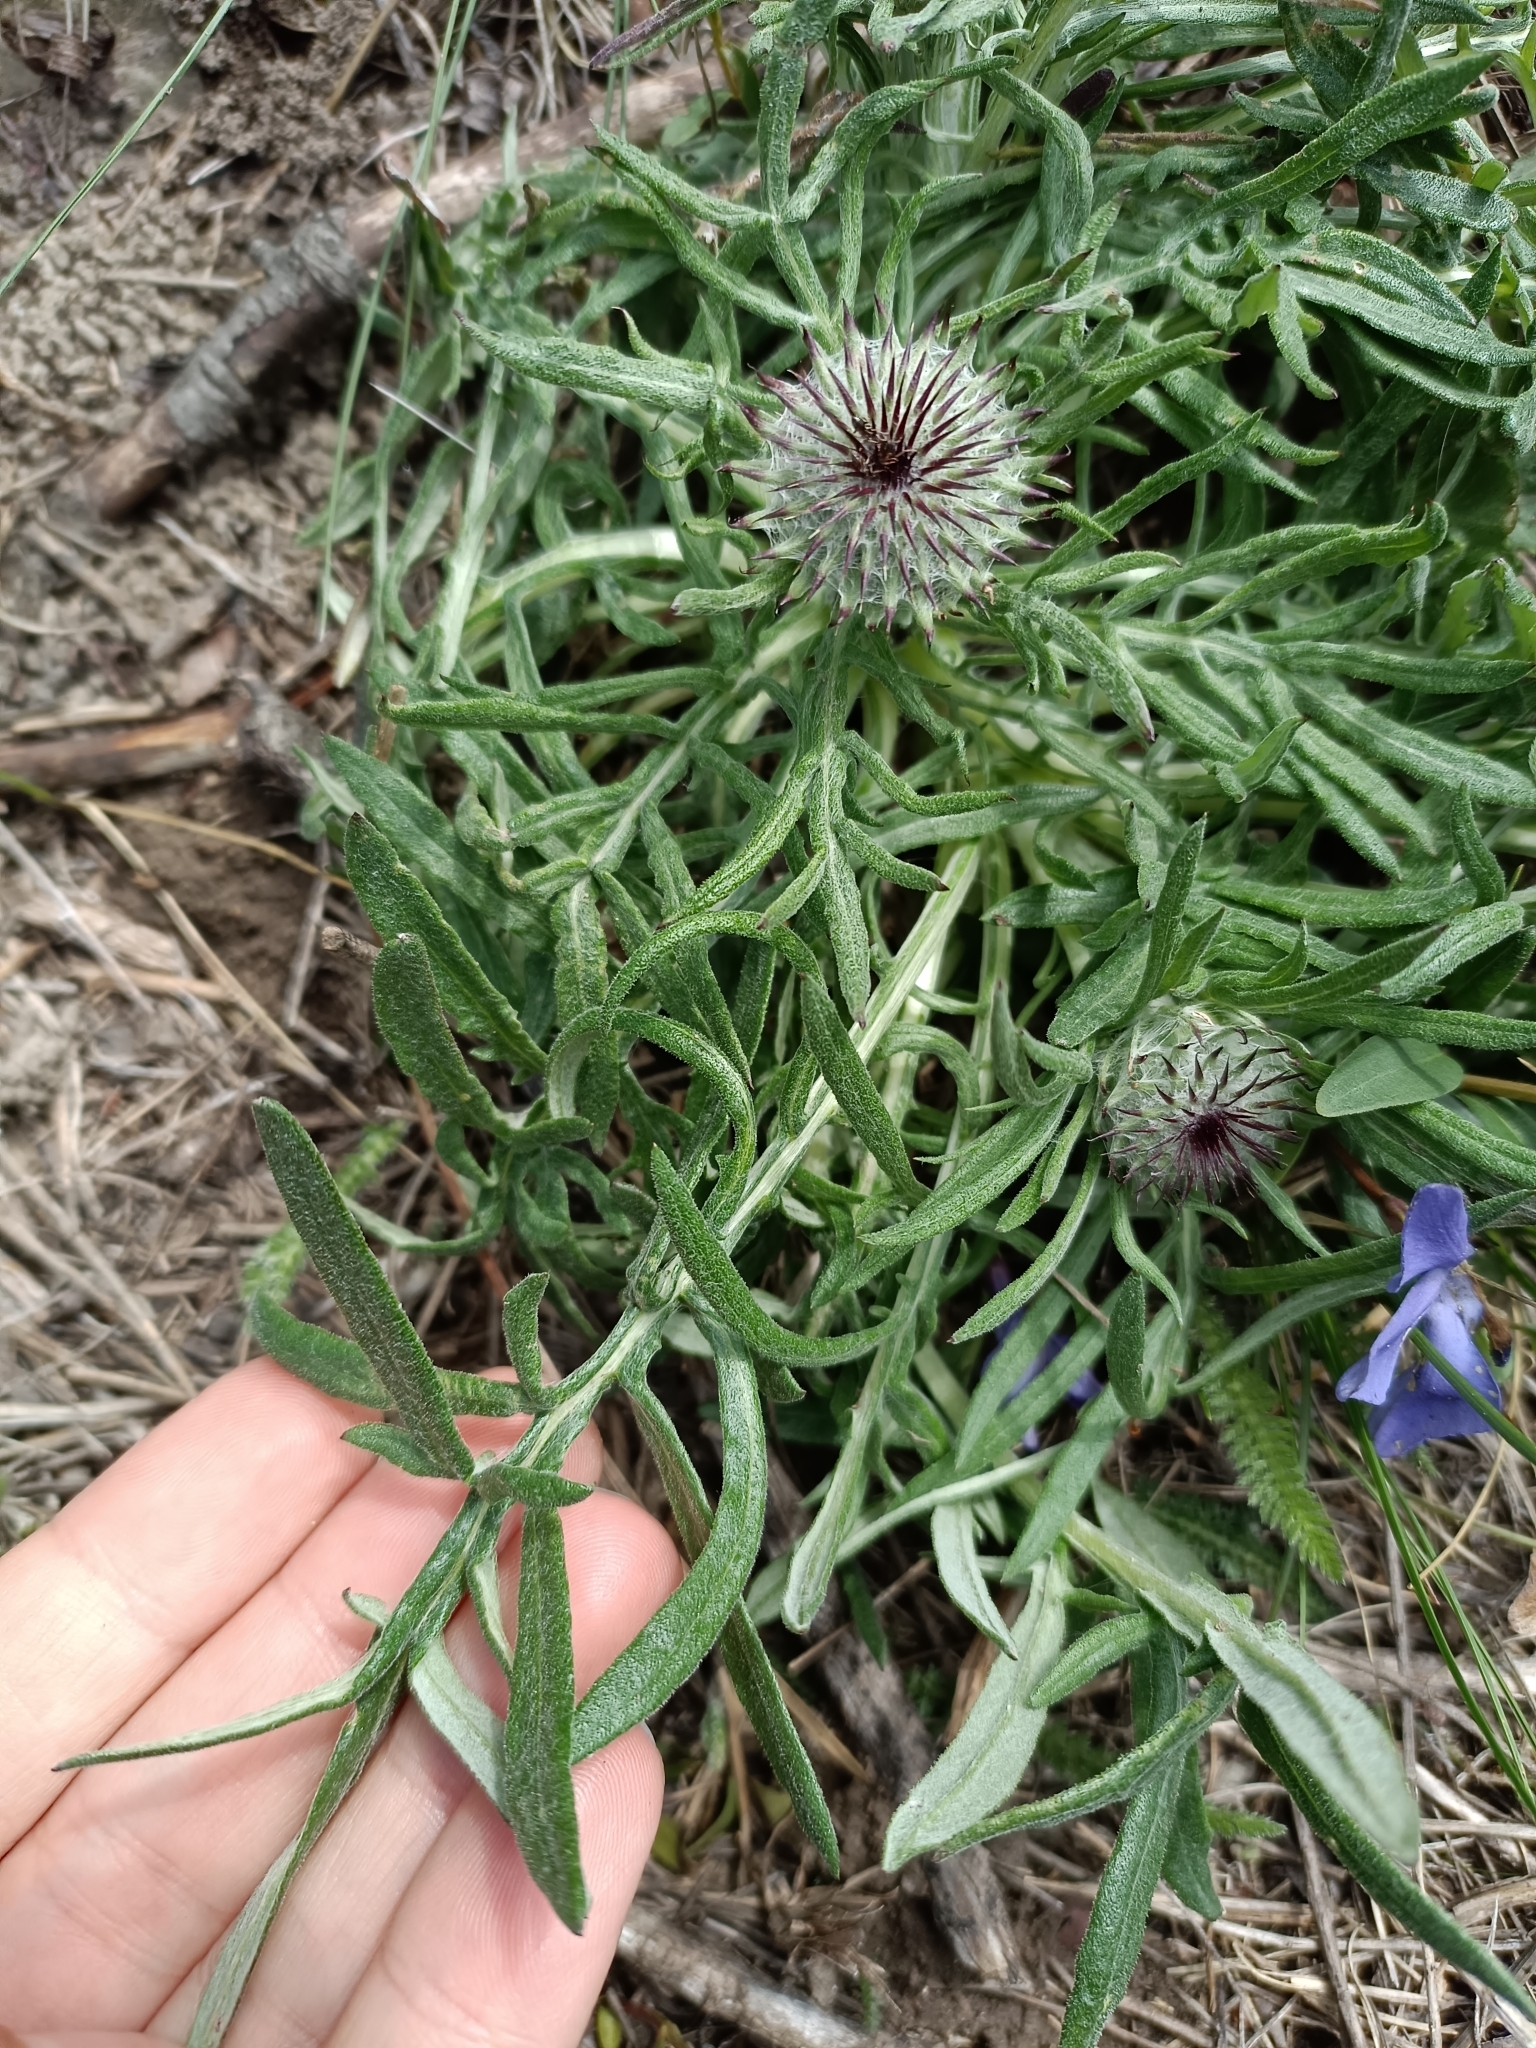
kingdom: Plantae
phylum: Tracheophyta
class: Magnoliopsida
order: Asterales
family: Asteraceae
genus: Jurinea
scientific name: Jurinea mollis
